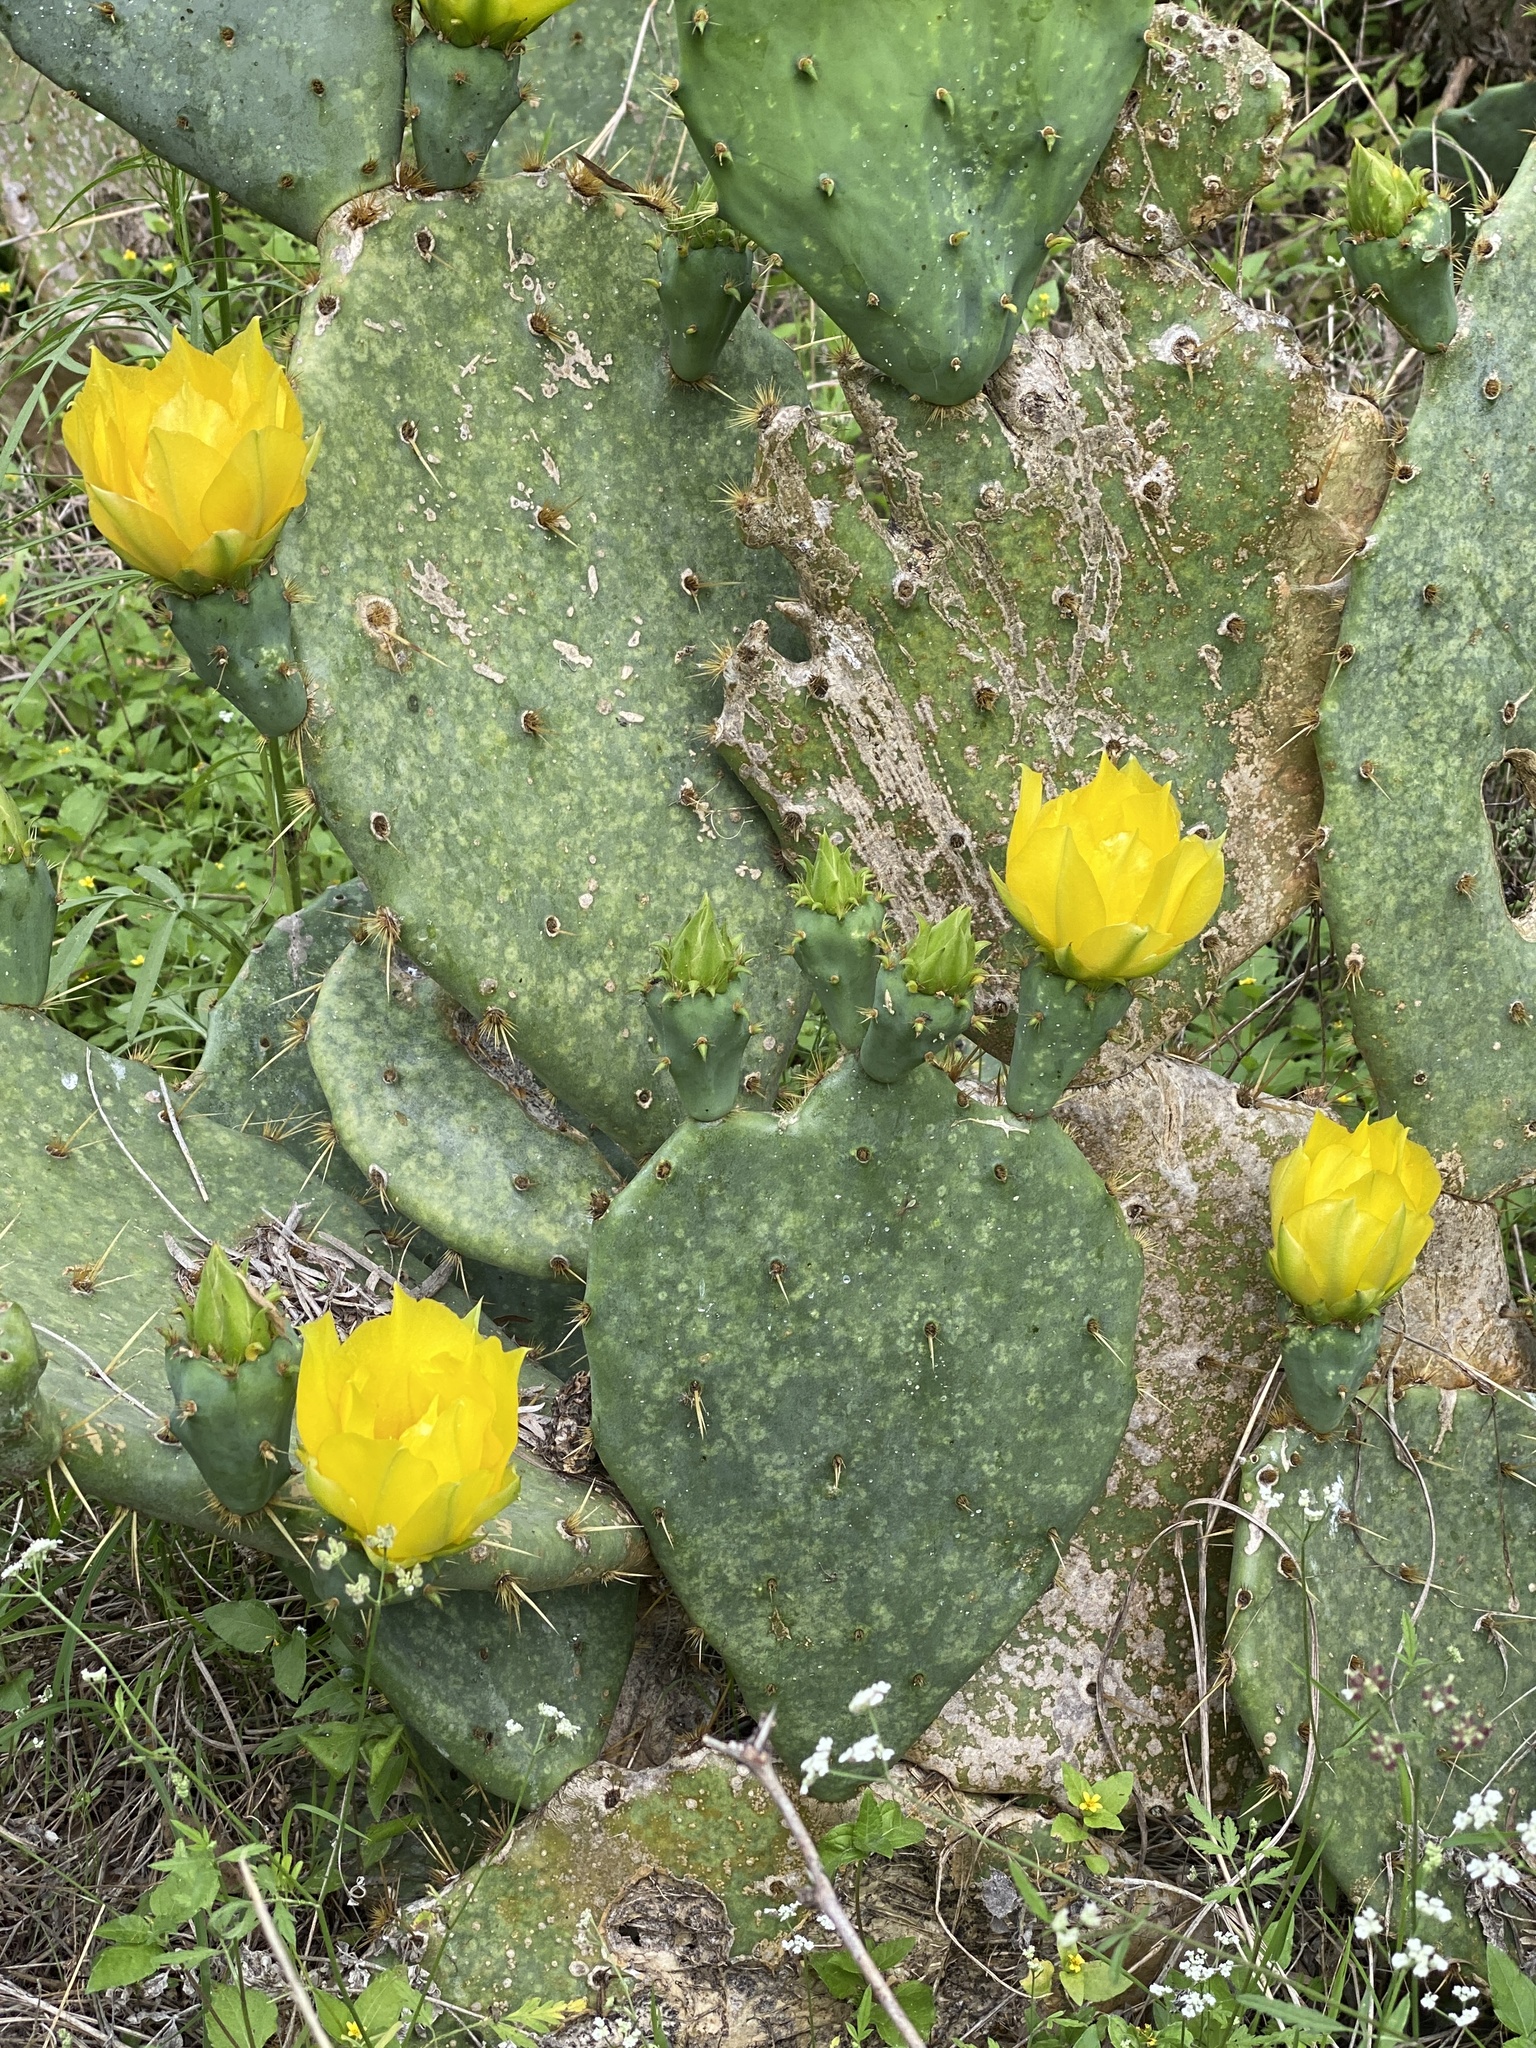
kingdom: Plantae
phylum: Tracheophyta
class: Magnoliopsida
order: Caryophyllales
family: Cactaceae
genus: Opuntia
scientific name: Opuntia engelmannii
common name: Cactus-apple
